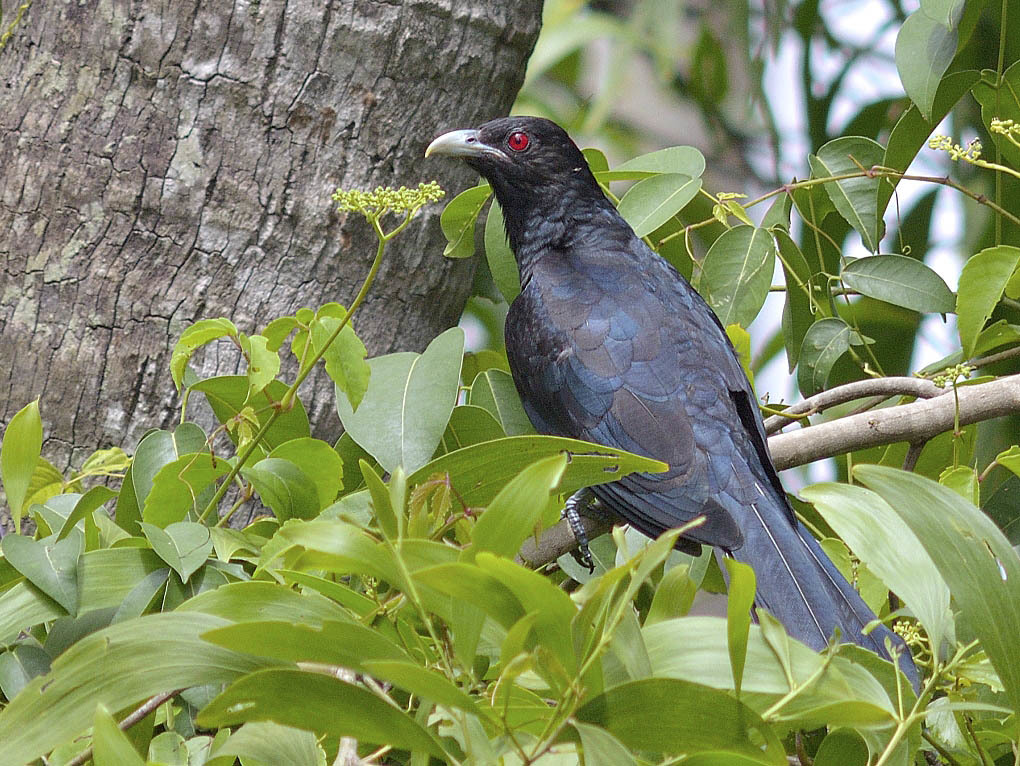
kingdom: Animalia
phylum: Chordata
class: Aves
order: Cuculiformes
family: Cuculidae
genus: Eudynamys
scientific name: Eudynamys scolopaceus
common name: Asian koel
